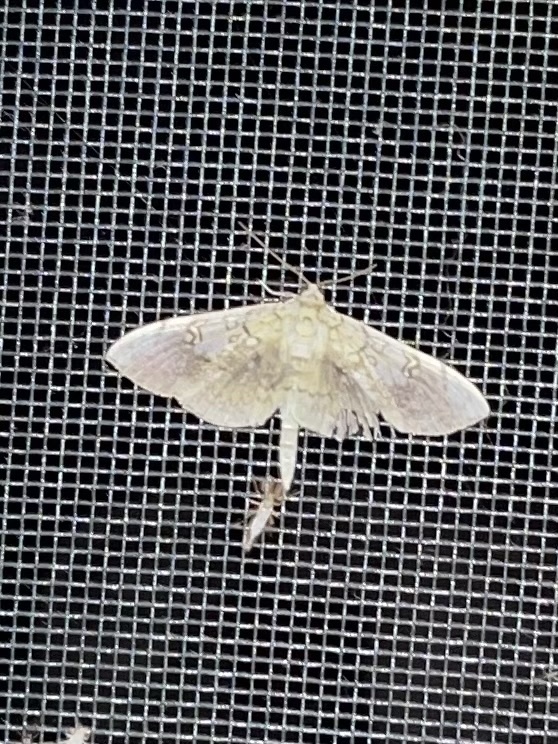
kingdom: Animalia
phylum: Arthropoda
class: Insecta
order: Lepidoptera
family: Crambidae
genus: Pantographa
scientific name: Pantographa limata
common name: Basswood leafroller moth
